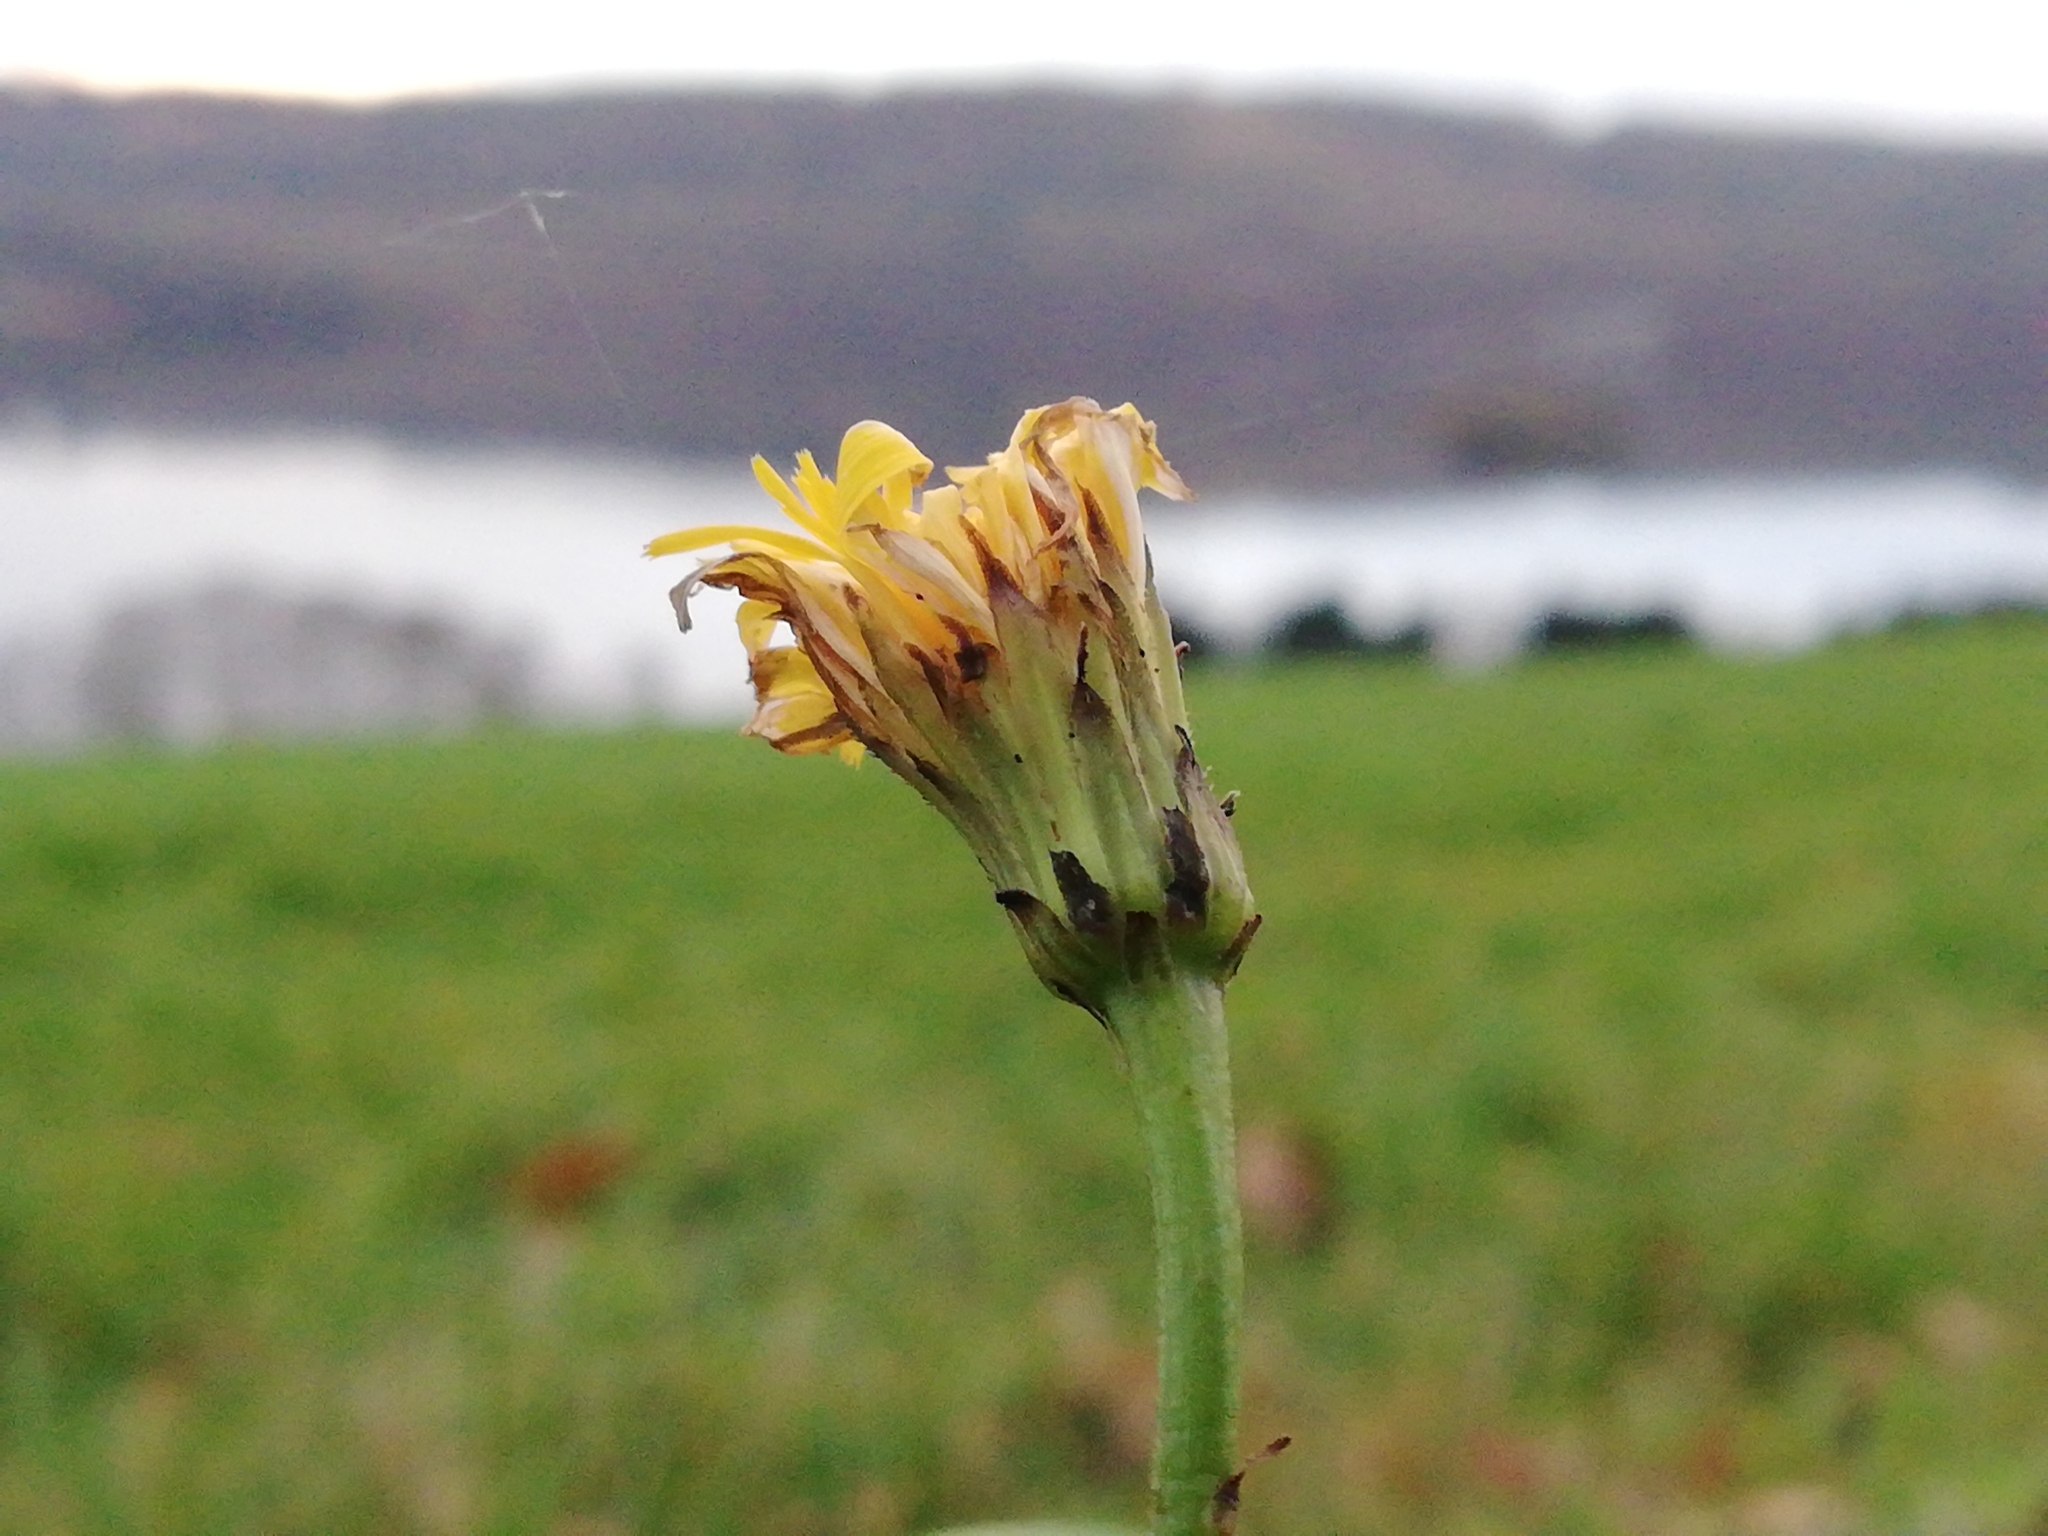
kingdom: Plantae
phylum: Tracheophyta
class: Magnoliopsida
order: Asterales
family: Asteraceae
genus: Hypochaeris
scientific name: Hypochaeris radicata
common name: Flatweed
